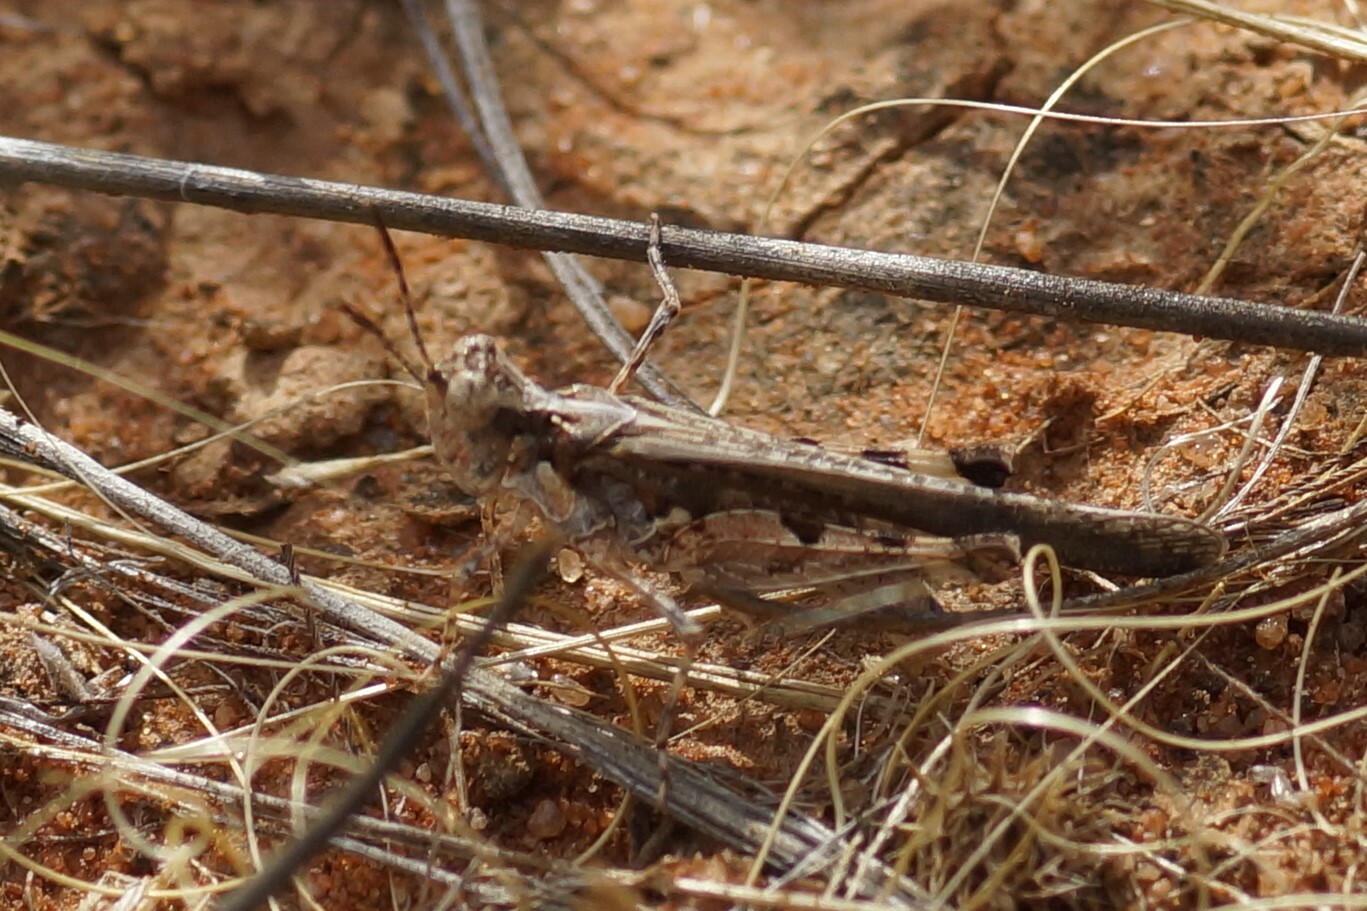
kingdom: Animalia
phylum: Arthropoda
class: Insecta
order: Orthoptera
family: Acrididae
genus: Pycnostictus
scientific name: Pycnostictus seriatus
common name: Common bandwing
